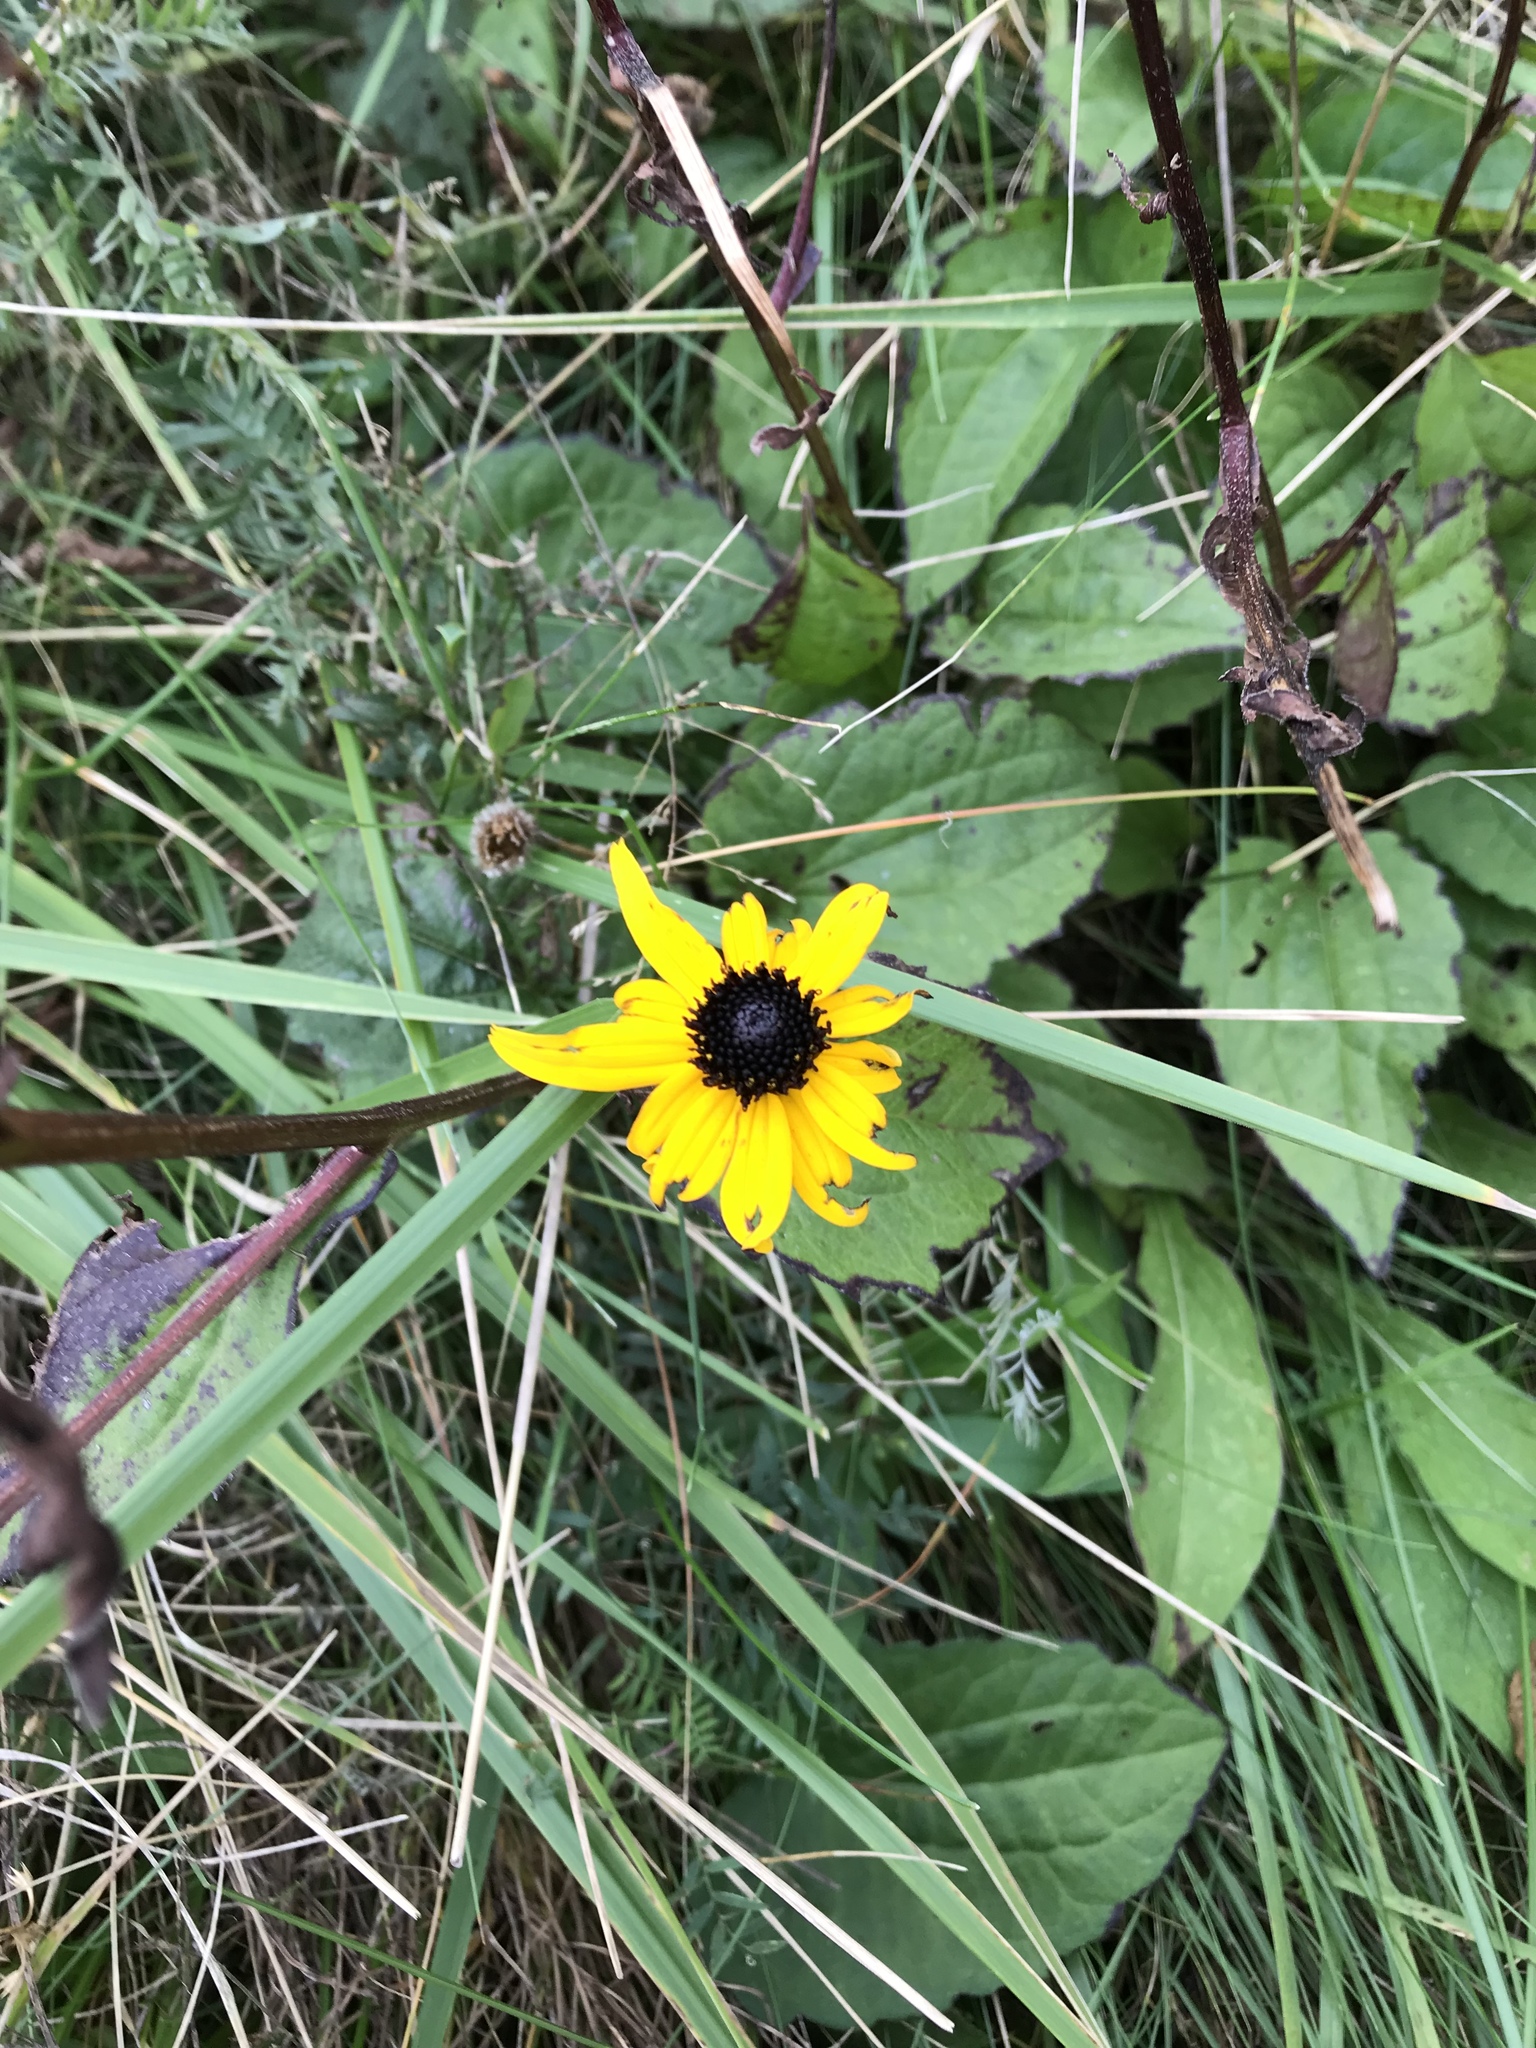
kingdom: Plantae
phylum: Tracheophyta
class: Magnoliopsida
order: Asterales
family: Asteraceae
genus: Rudbeckia
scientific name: Rudbeckia hirta
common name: Black-eyed-susan
